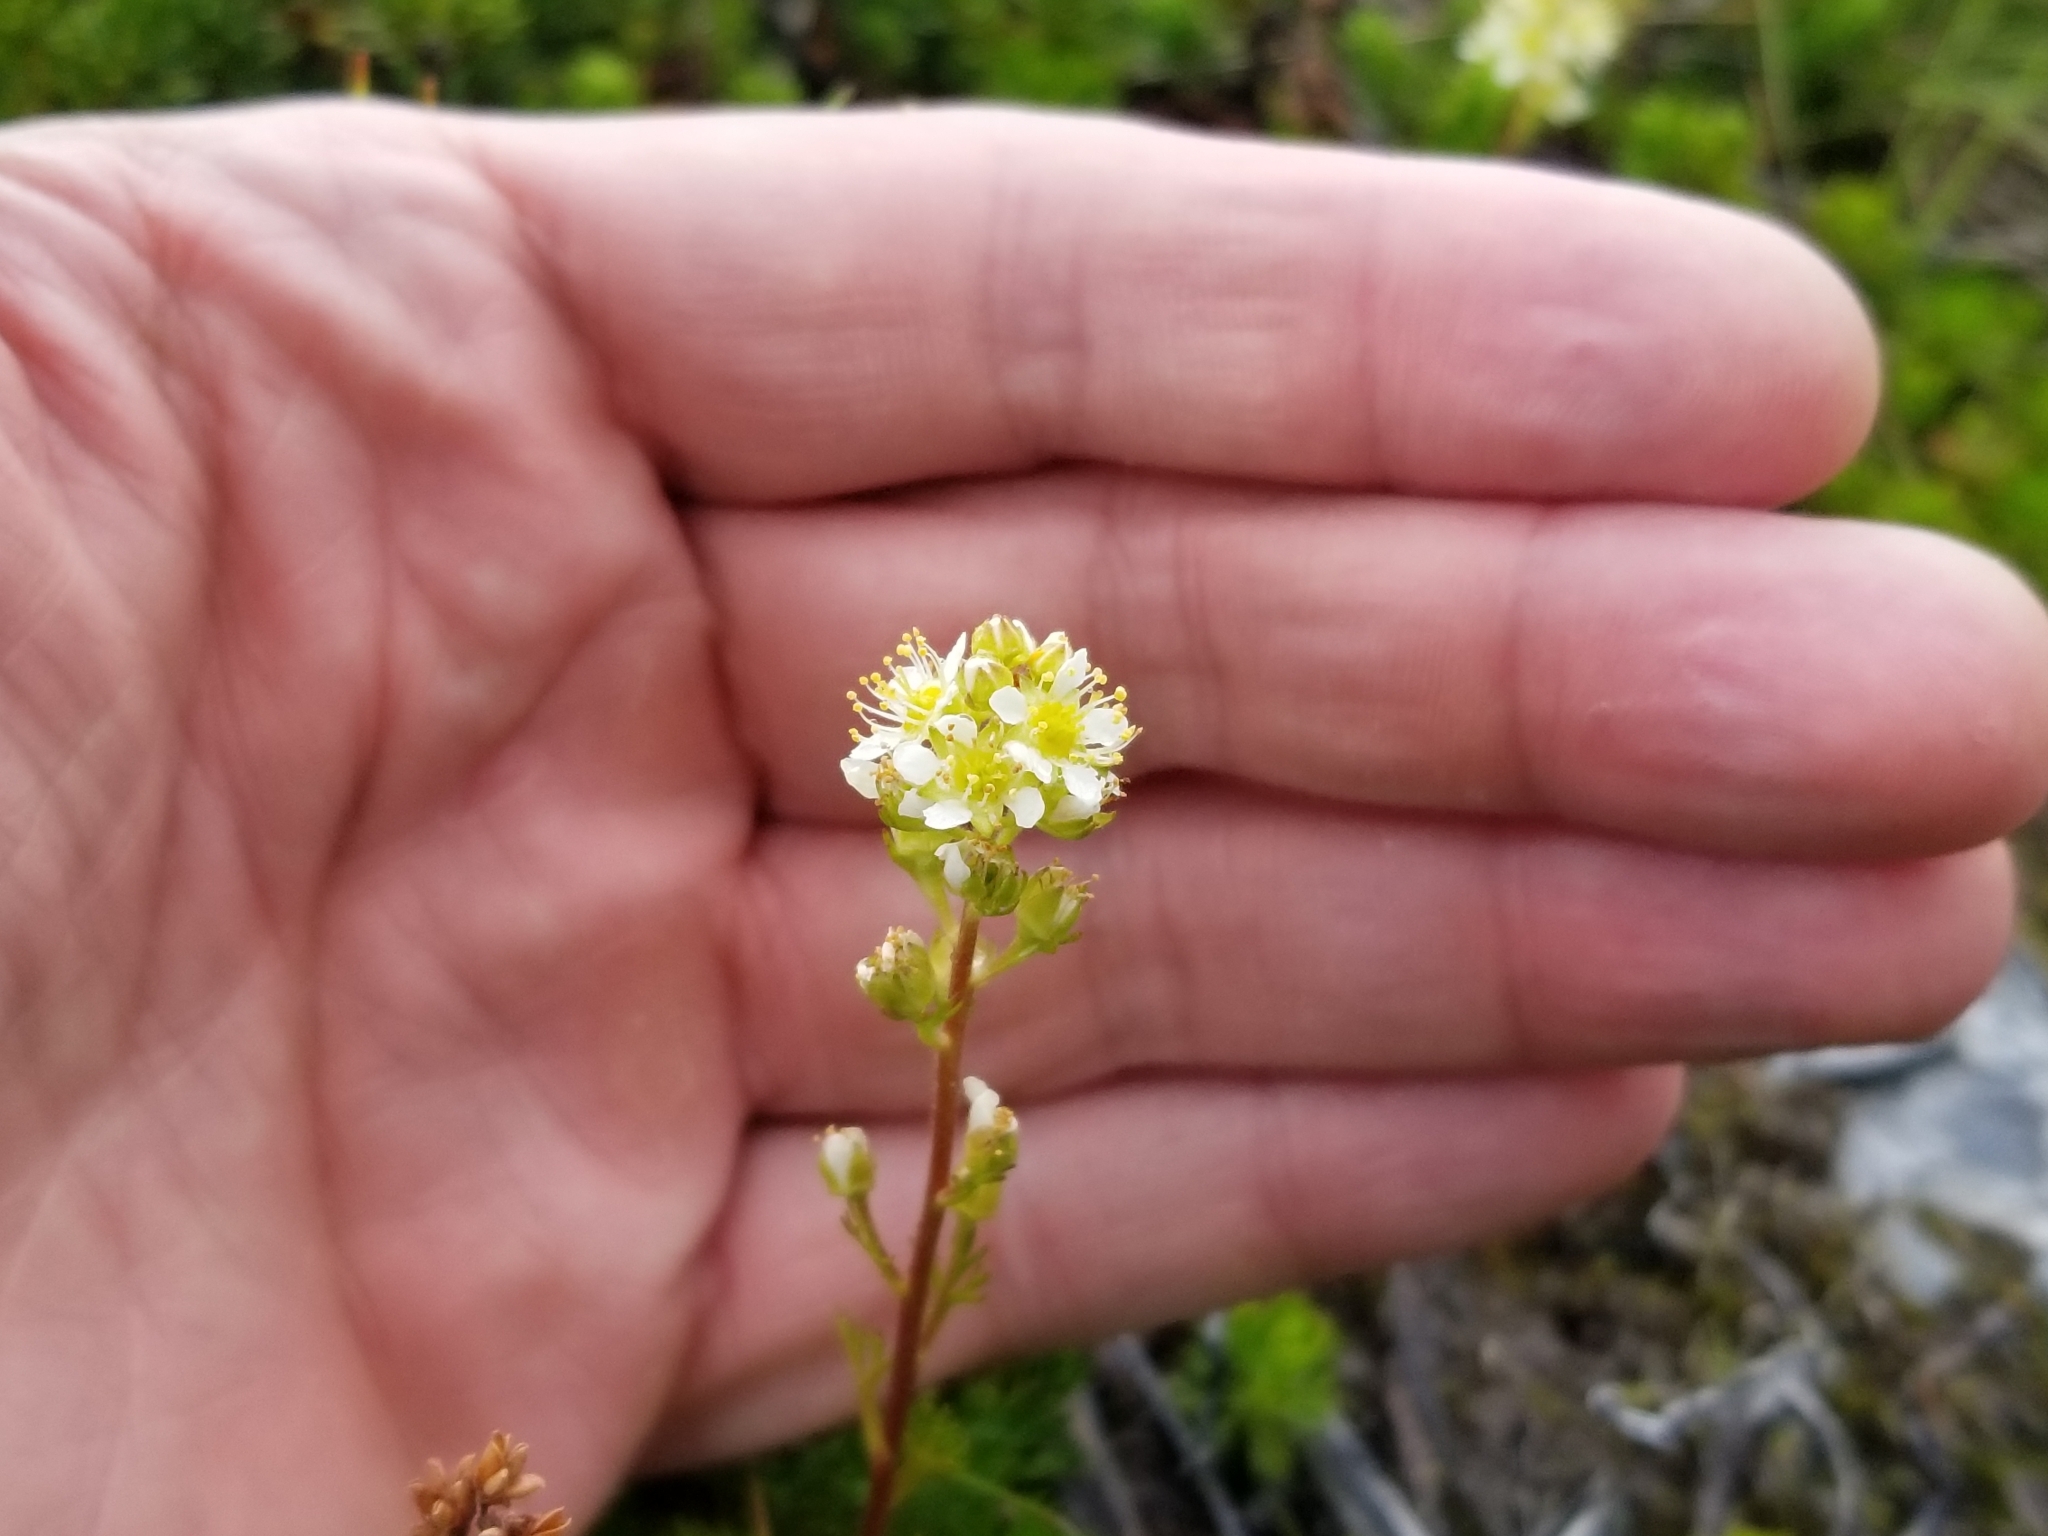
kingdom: Plantae
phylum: Tracheophyta
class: Magnoliopsida
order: Rosales
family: Rosaceae
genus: Luetkea
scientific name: Luetkea pectinata
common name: Partridgefoot
